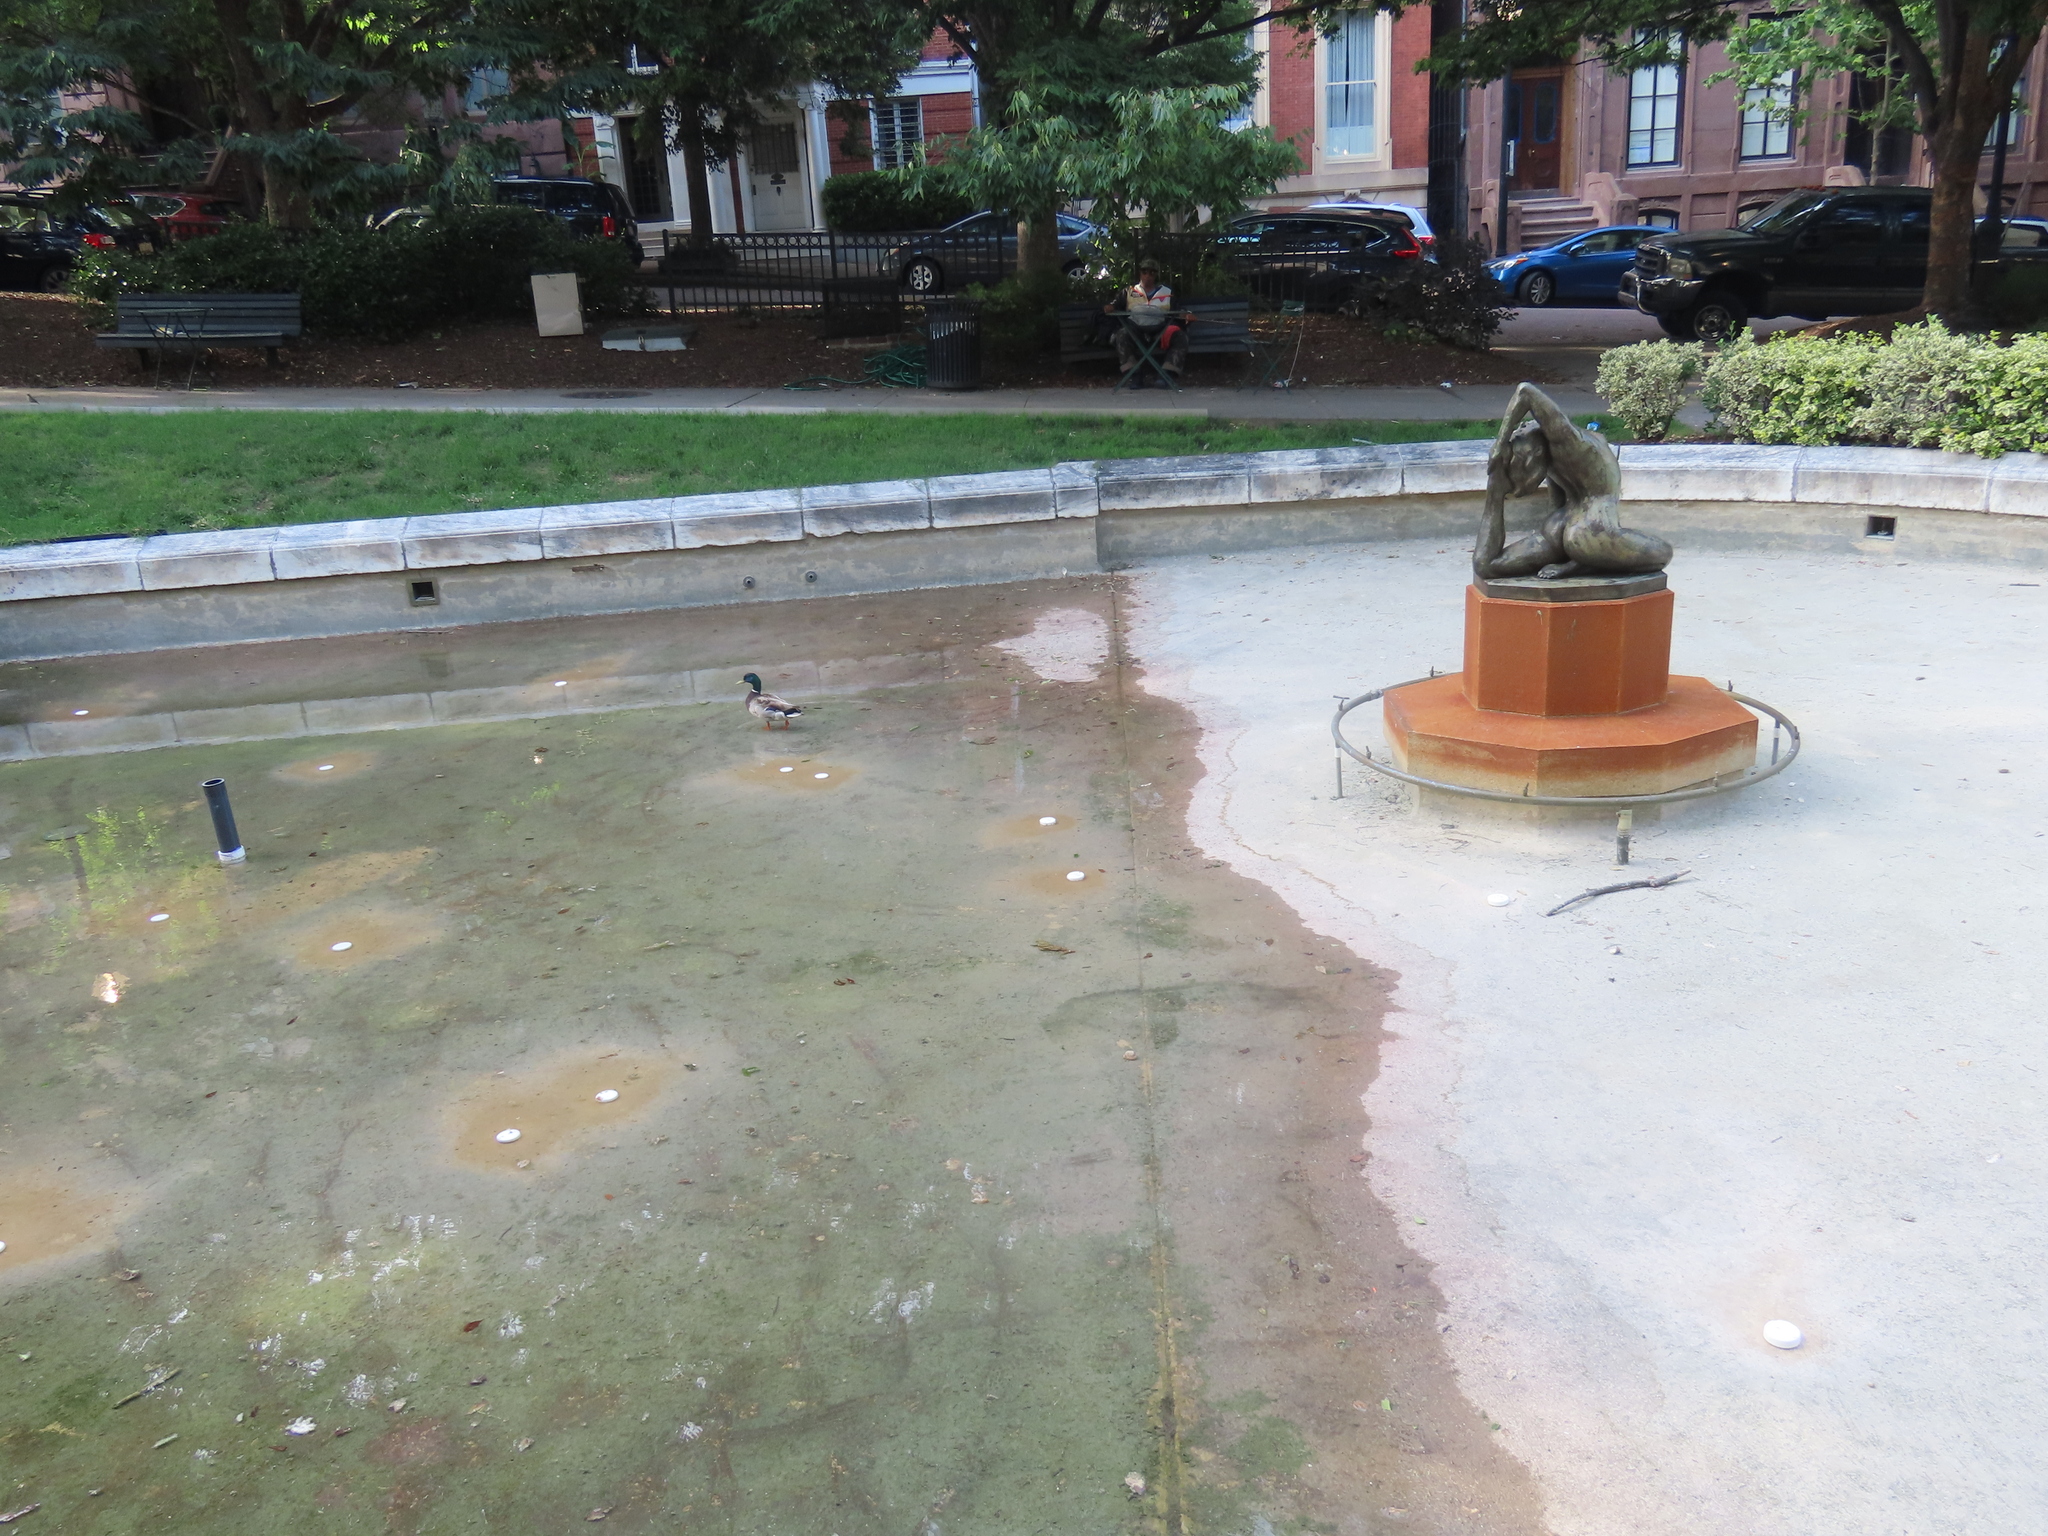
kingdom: Animalia
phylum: Chordata
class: Aves
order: Anseriformes
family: Anatidae
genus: Anas
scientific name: Anas platyrhynchos
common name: Mallard
